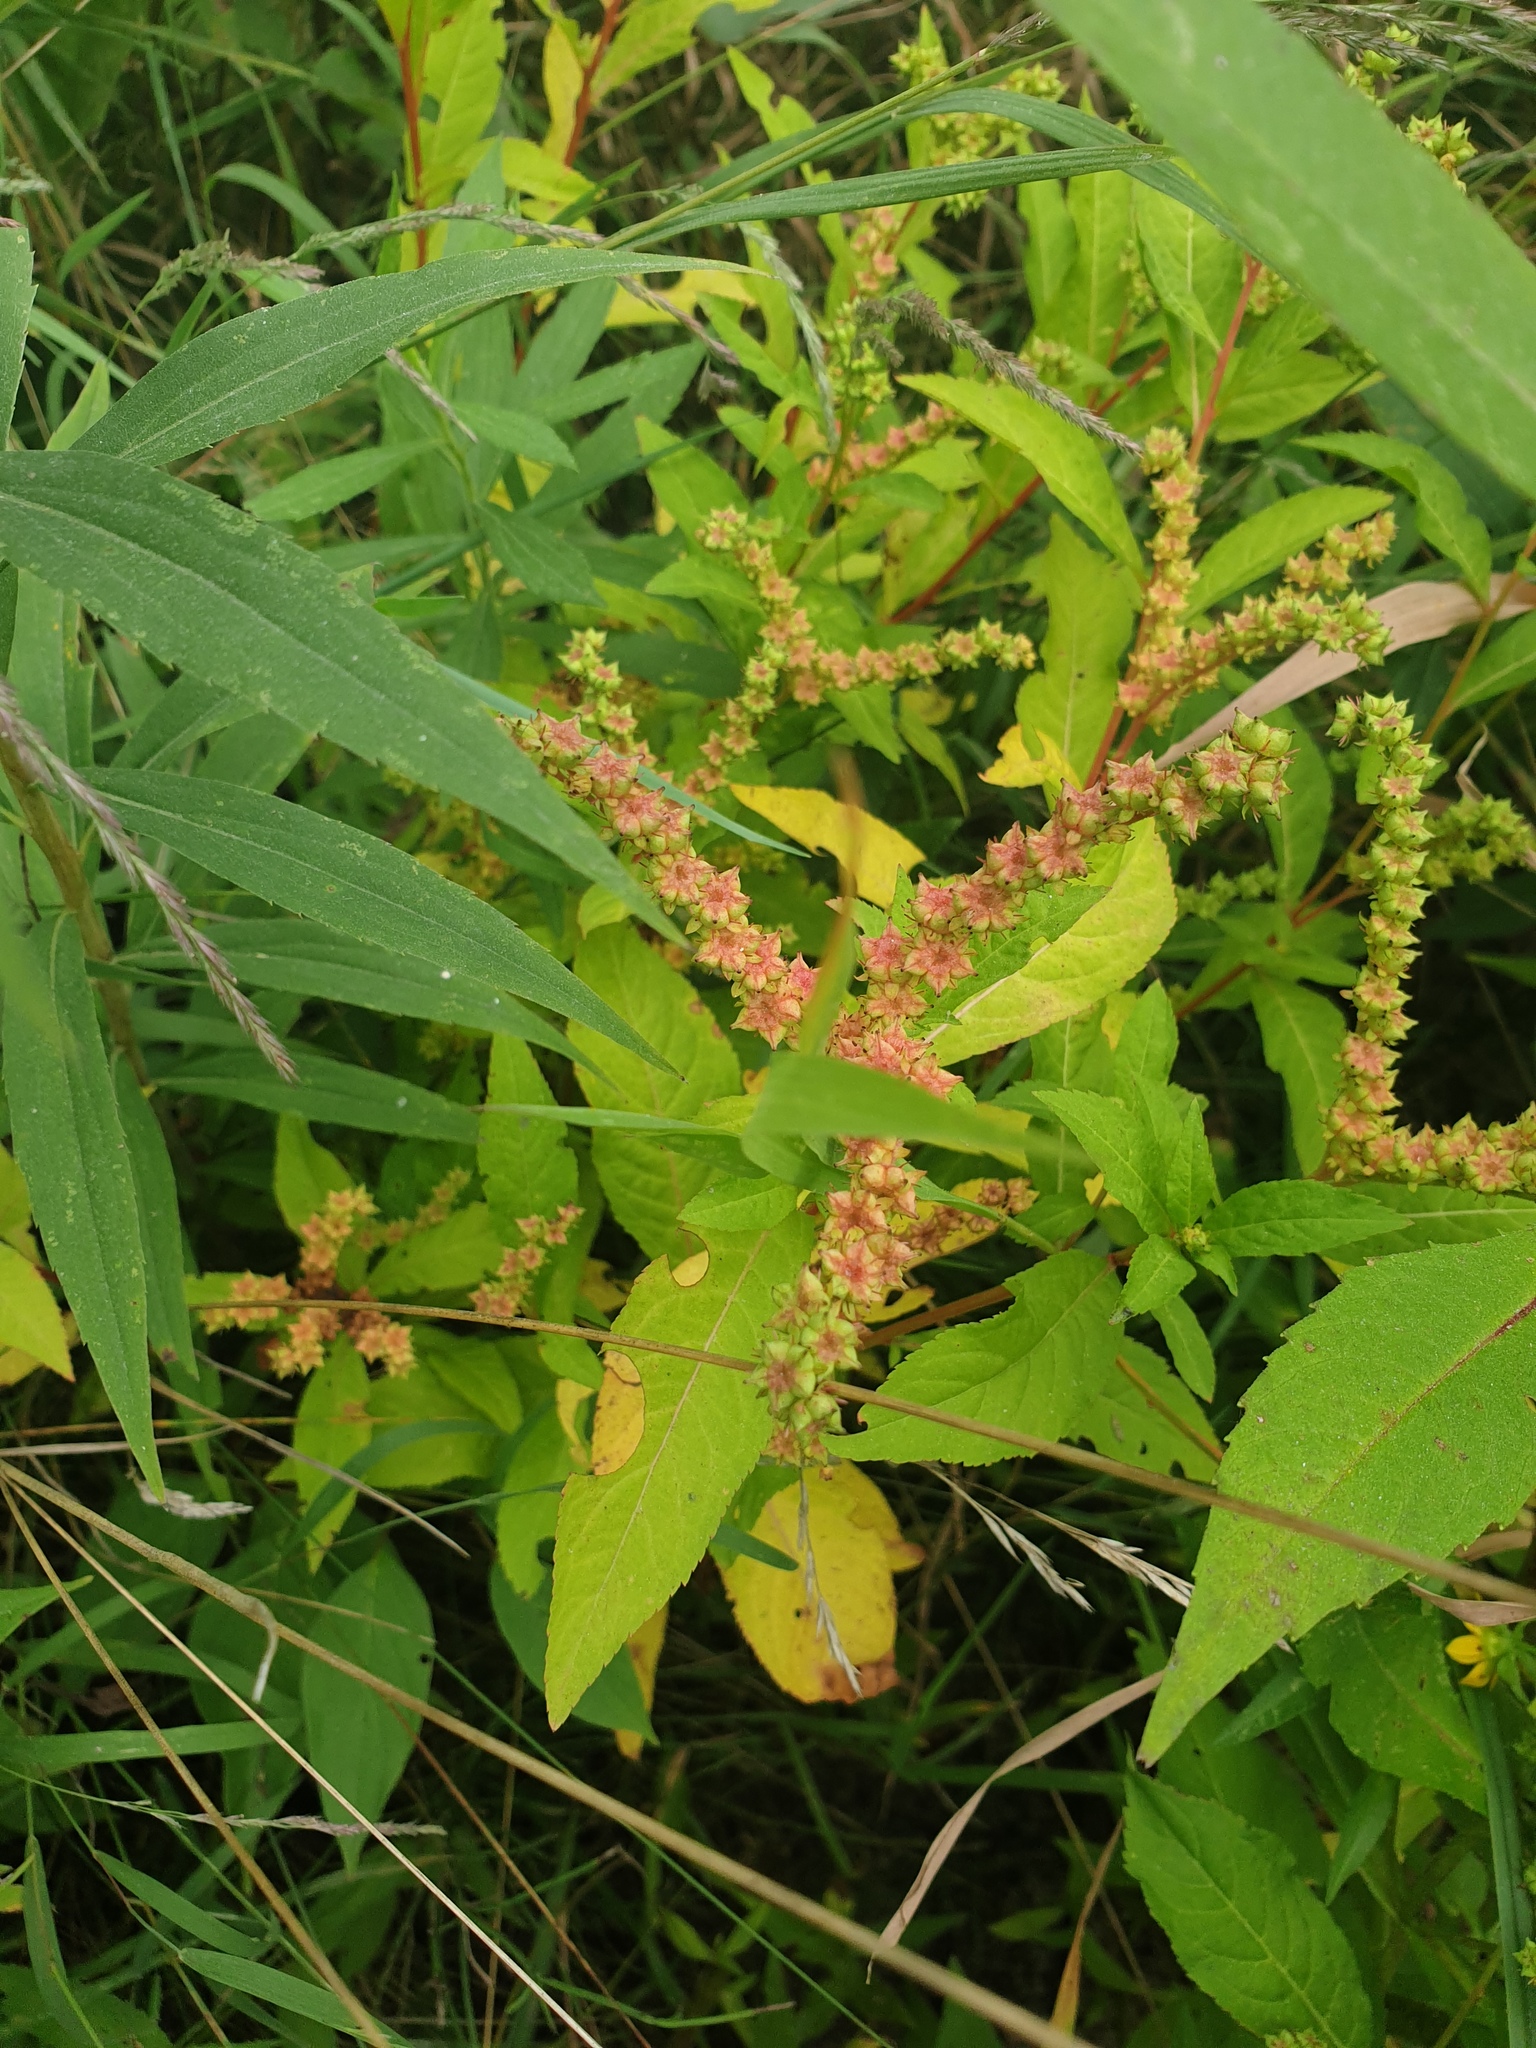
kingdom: Plantae
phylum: Tracheophyta
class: Magnoliopsida
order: Saxifragales
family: Penthoraceae
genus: Penthorum
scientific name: Penthorum sedoides
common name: Ditch stonecrop
